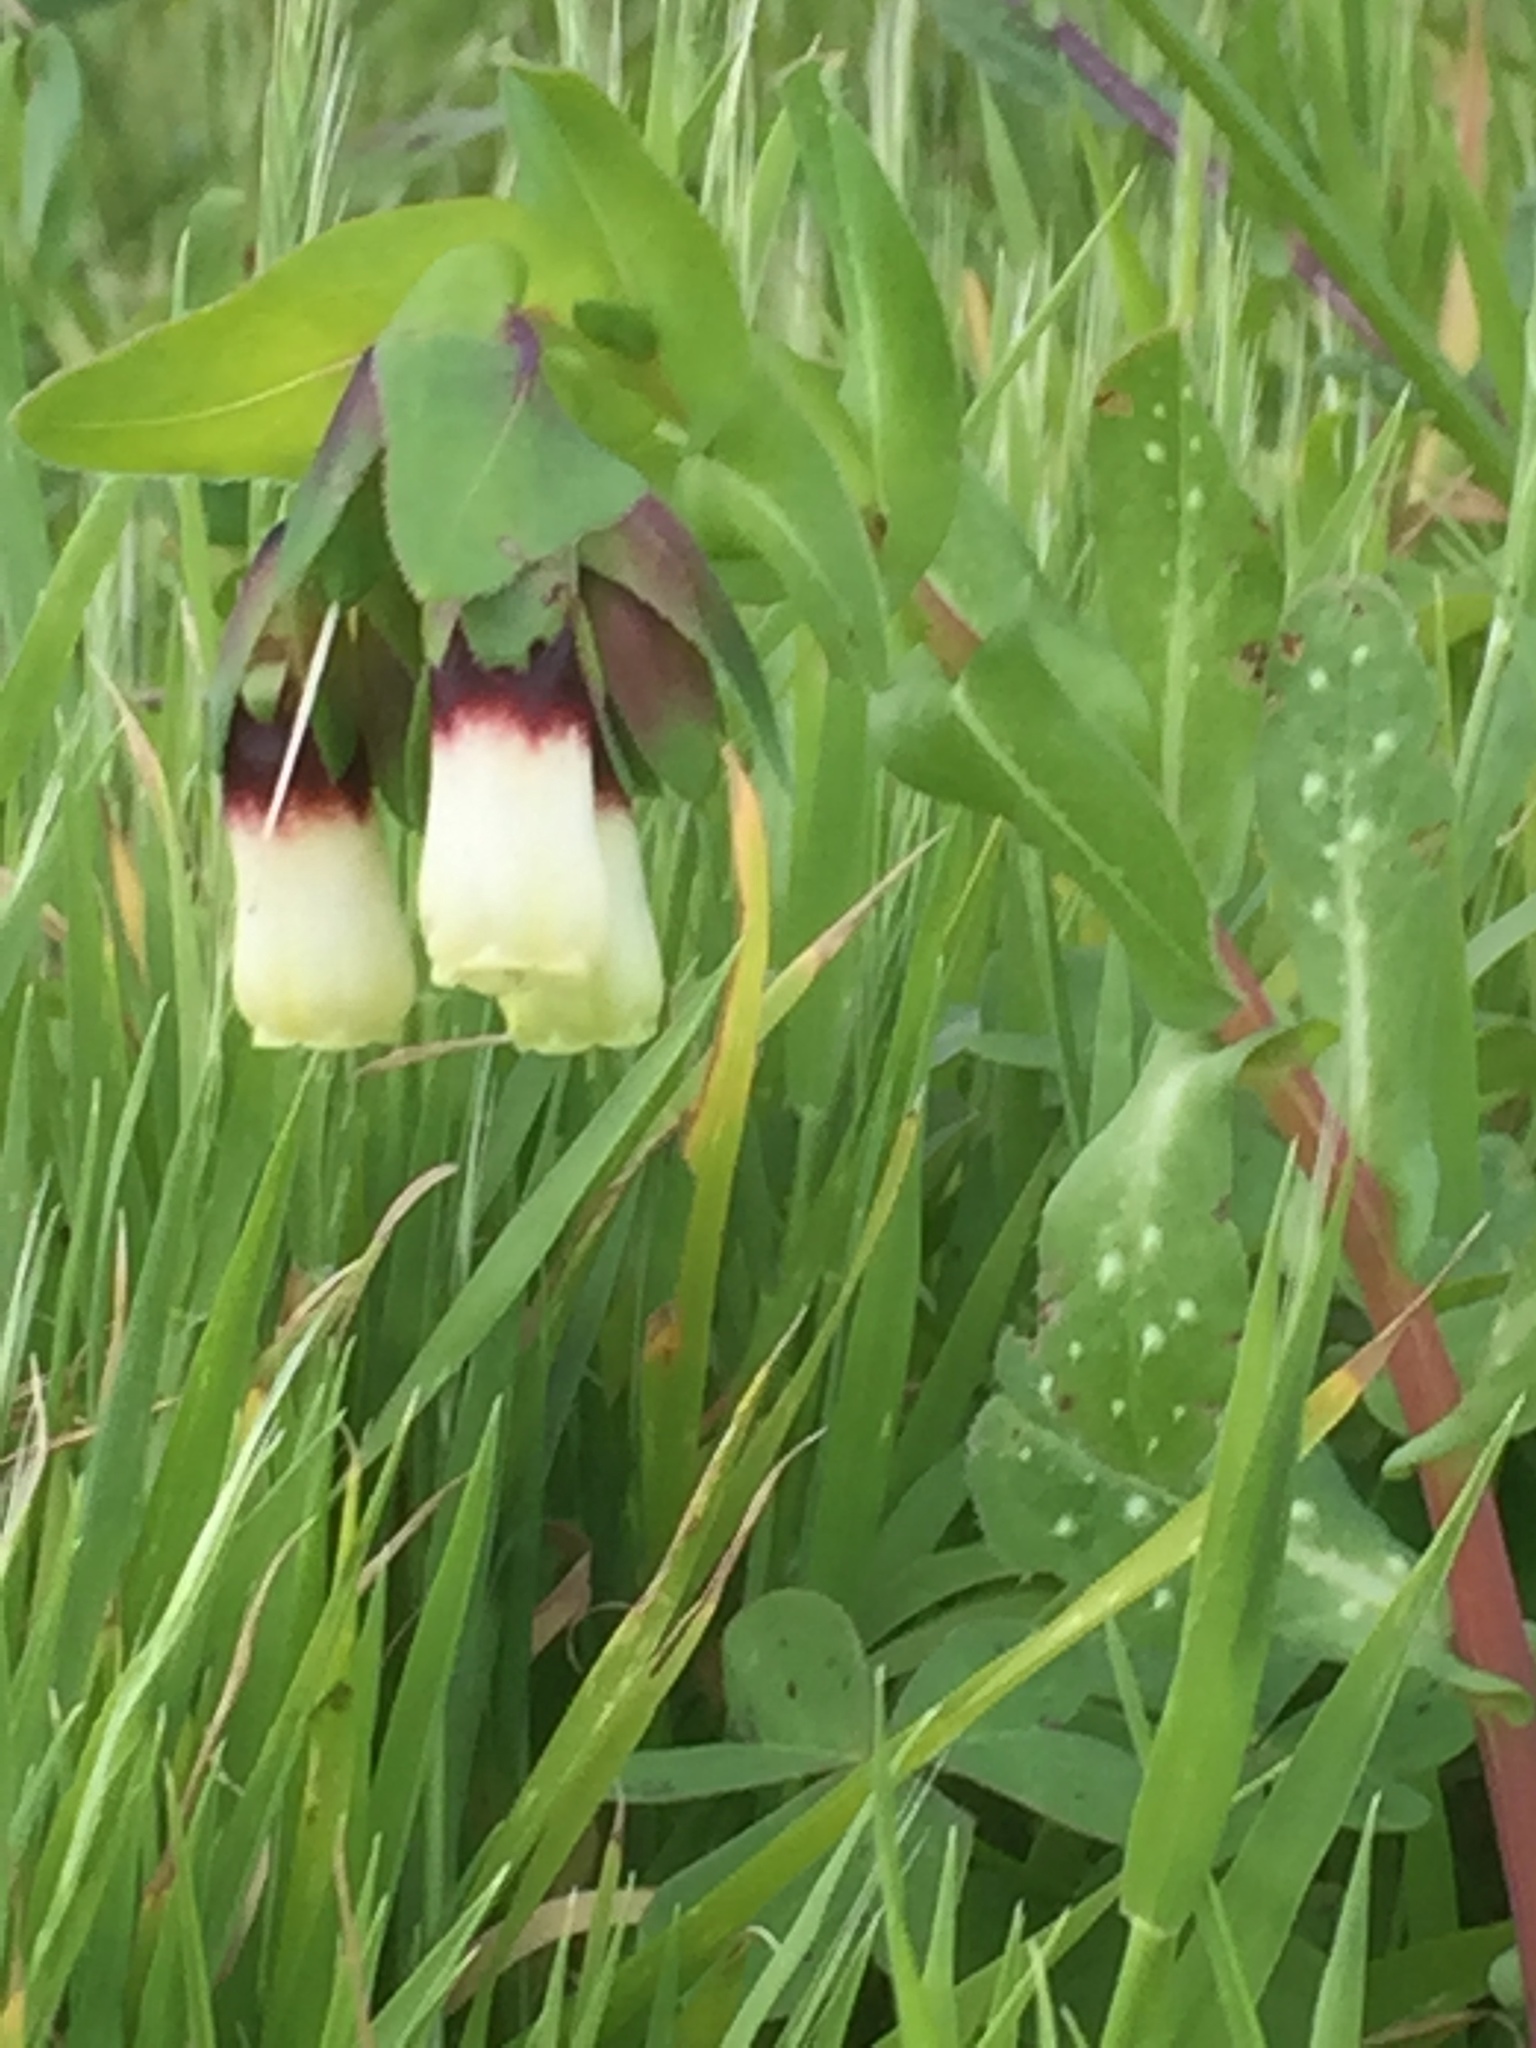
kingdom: Plantae
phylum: Tracheophyta
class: Magnoliopsida
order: Boraginales
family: Boraginaceae
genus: Cerinthe
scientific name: Cerinthe major
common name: Greater honeywort
